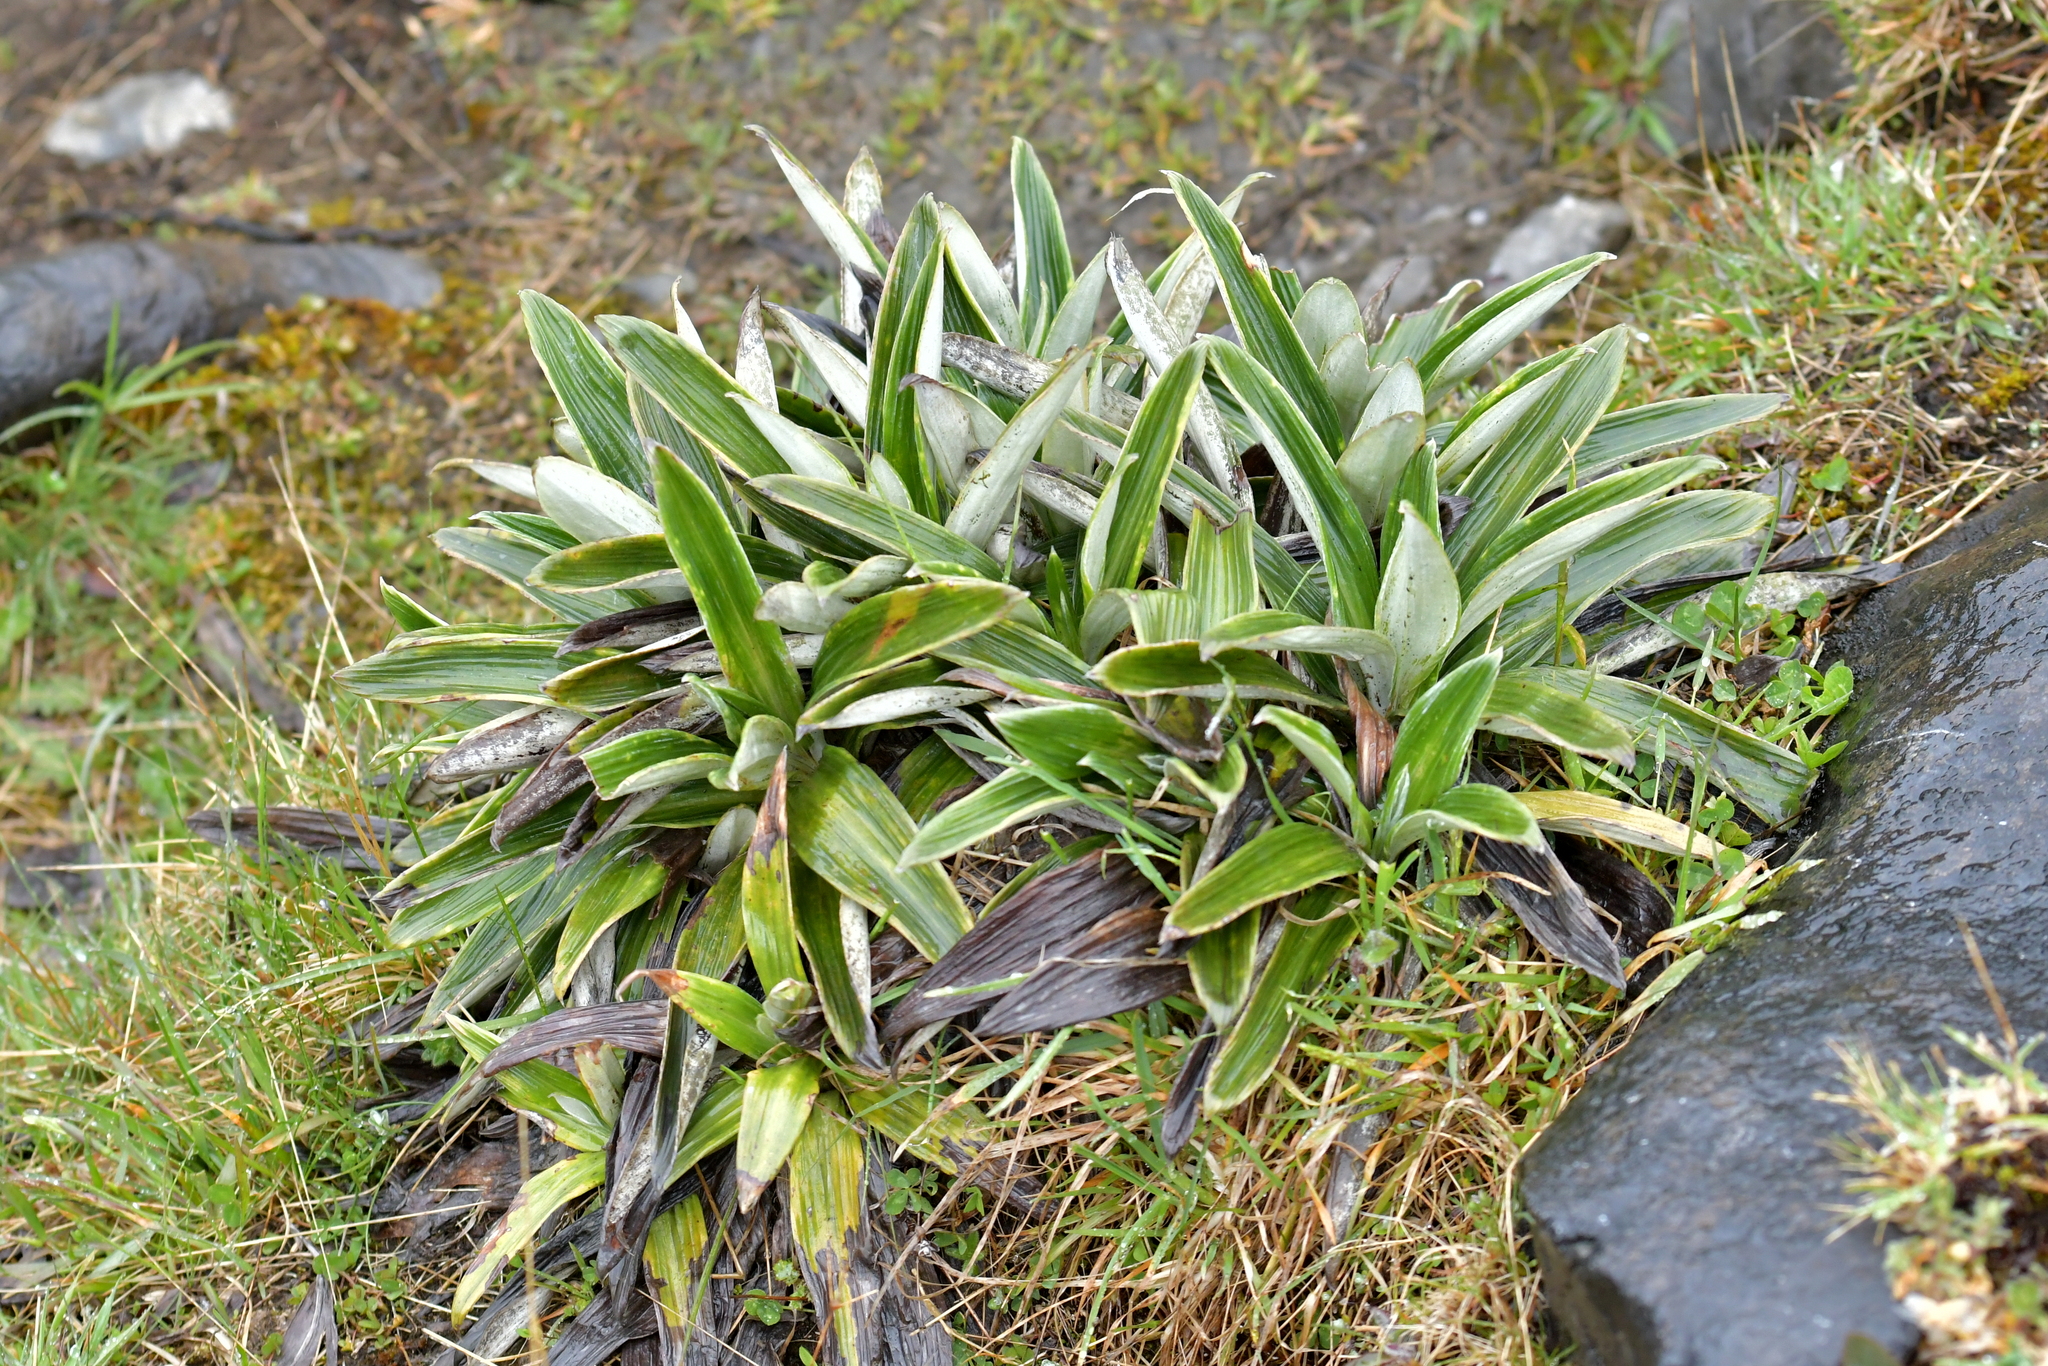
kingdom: Plantae
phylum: Tracheophyta
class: Magnoliopsida
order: Asterales
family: Asteraceae
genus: Celmisia
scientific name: Celmisia semicordata
